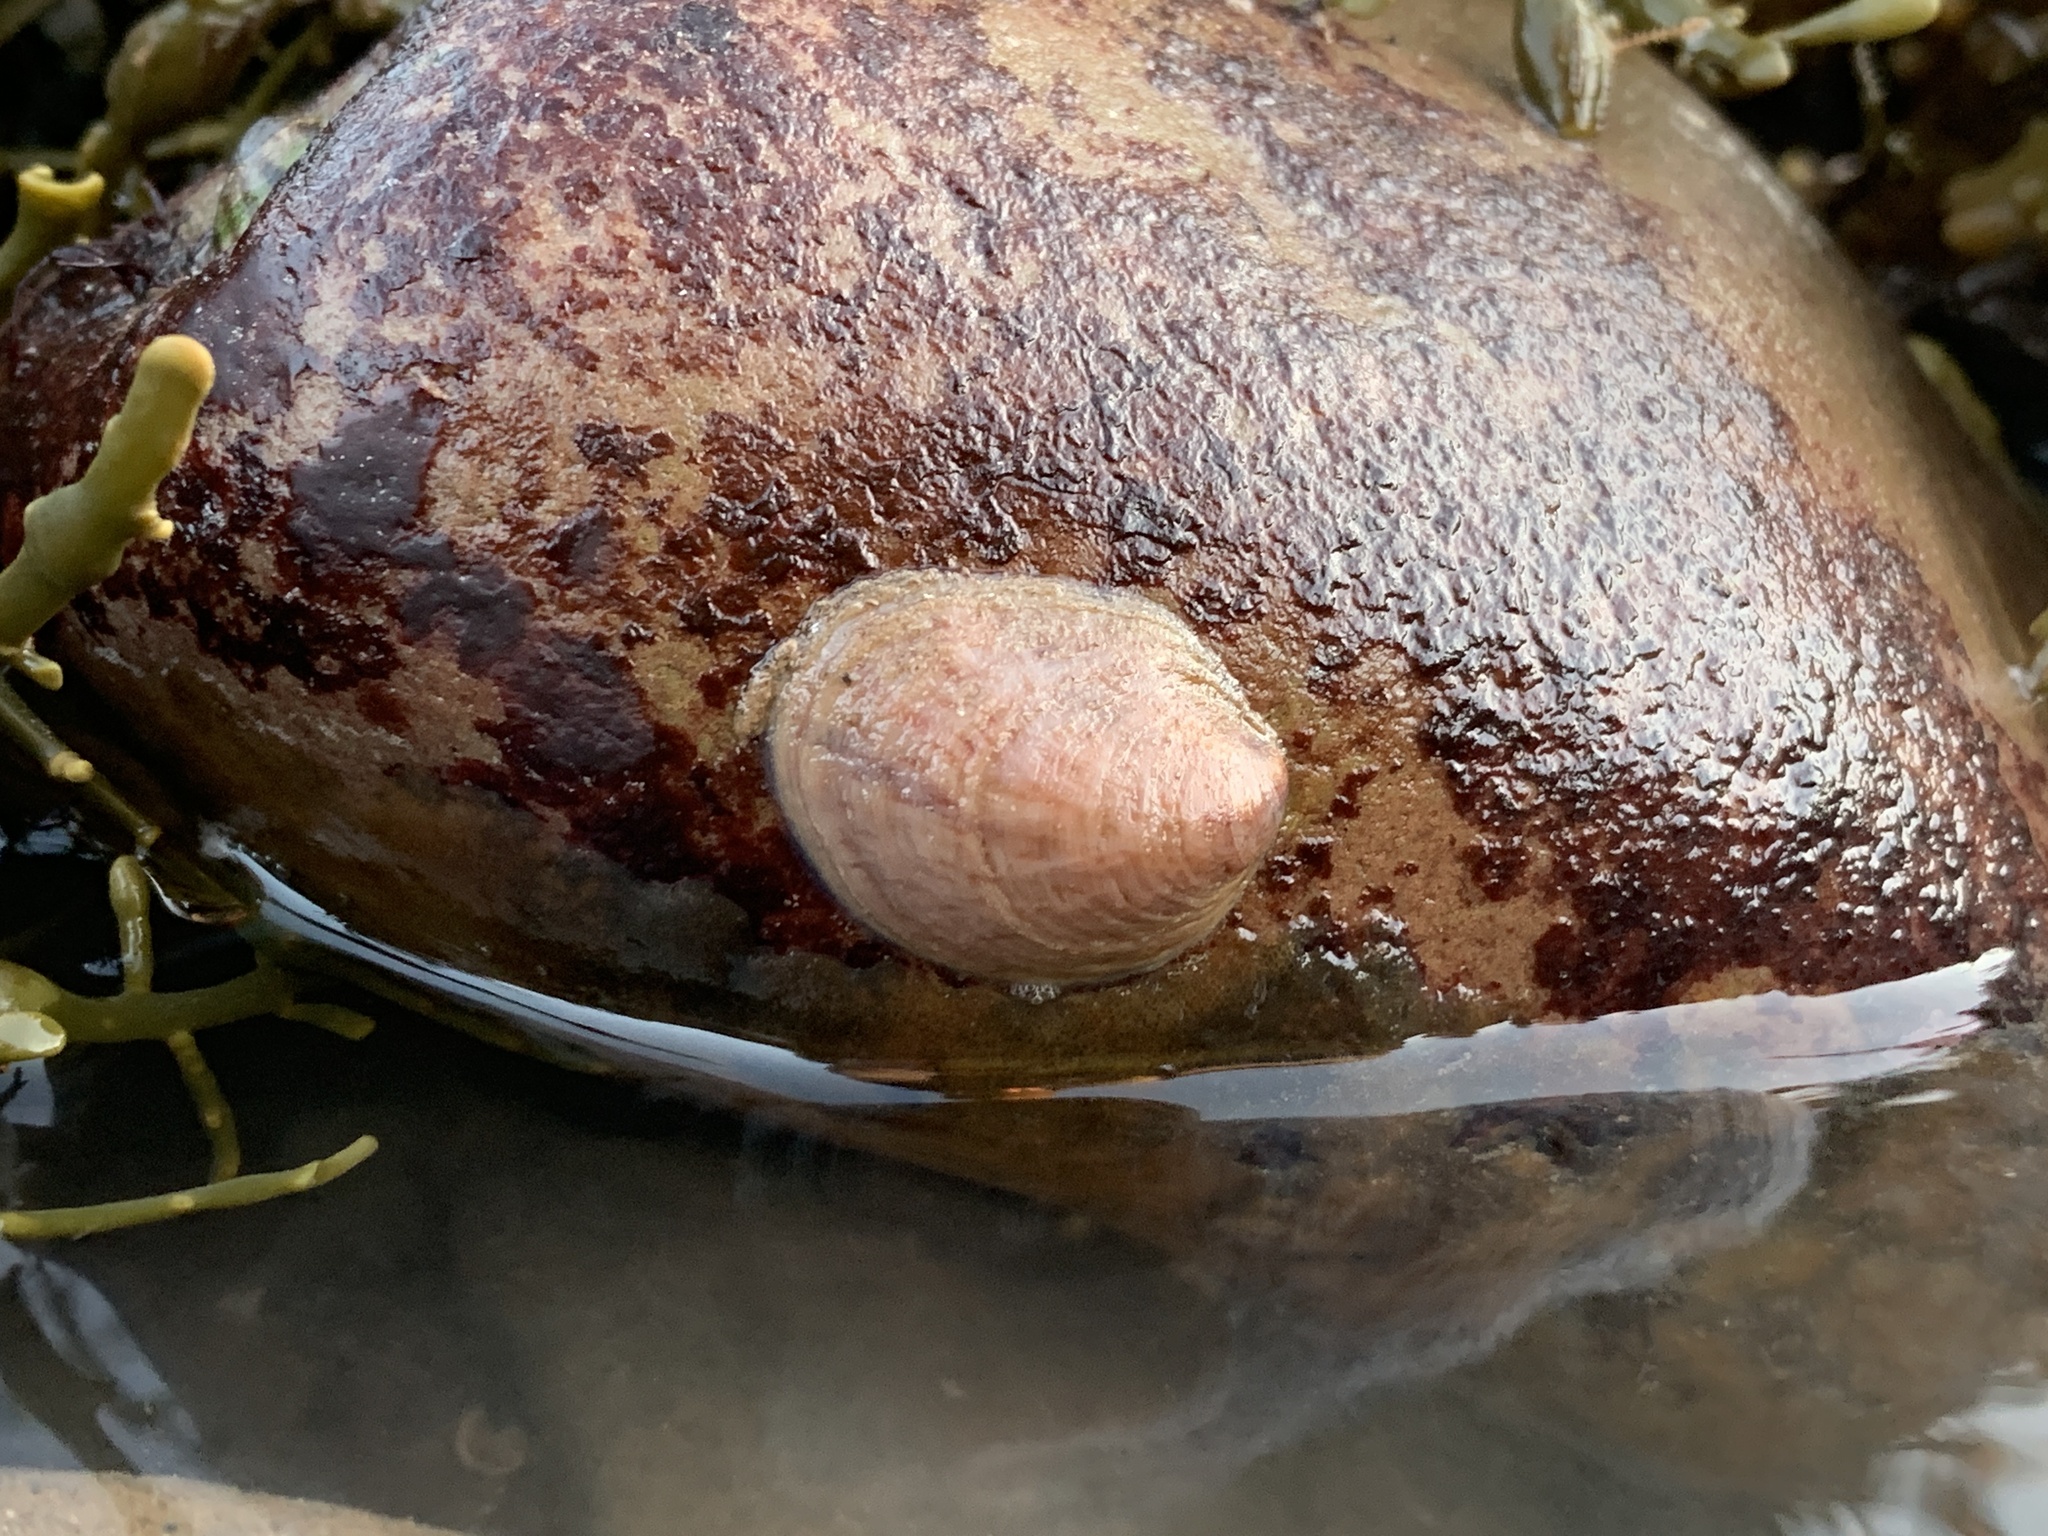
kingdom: Animalia
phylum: Mollusca
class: Gastropoda
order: Littorinimorpha
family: Calyptraeidae
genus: Crepidula
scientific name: Crepidula fornicata
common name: Slipper limpet
